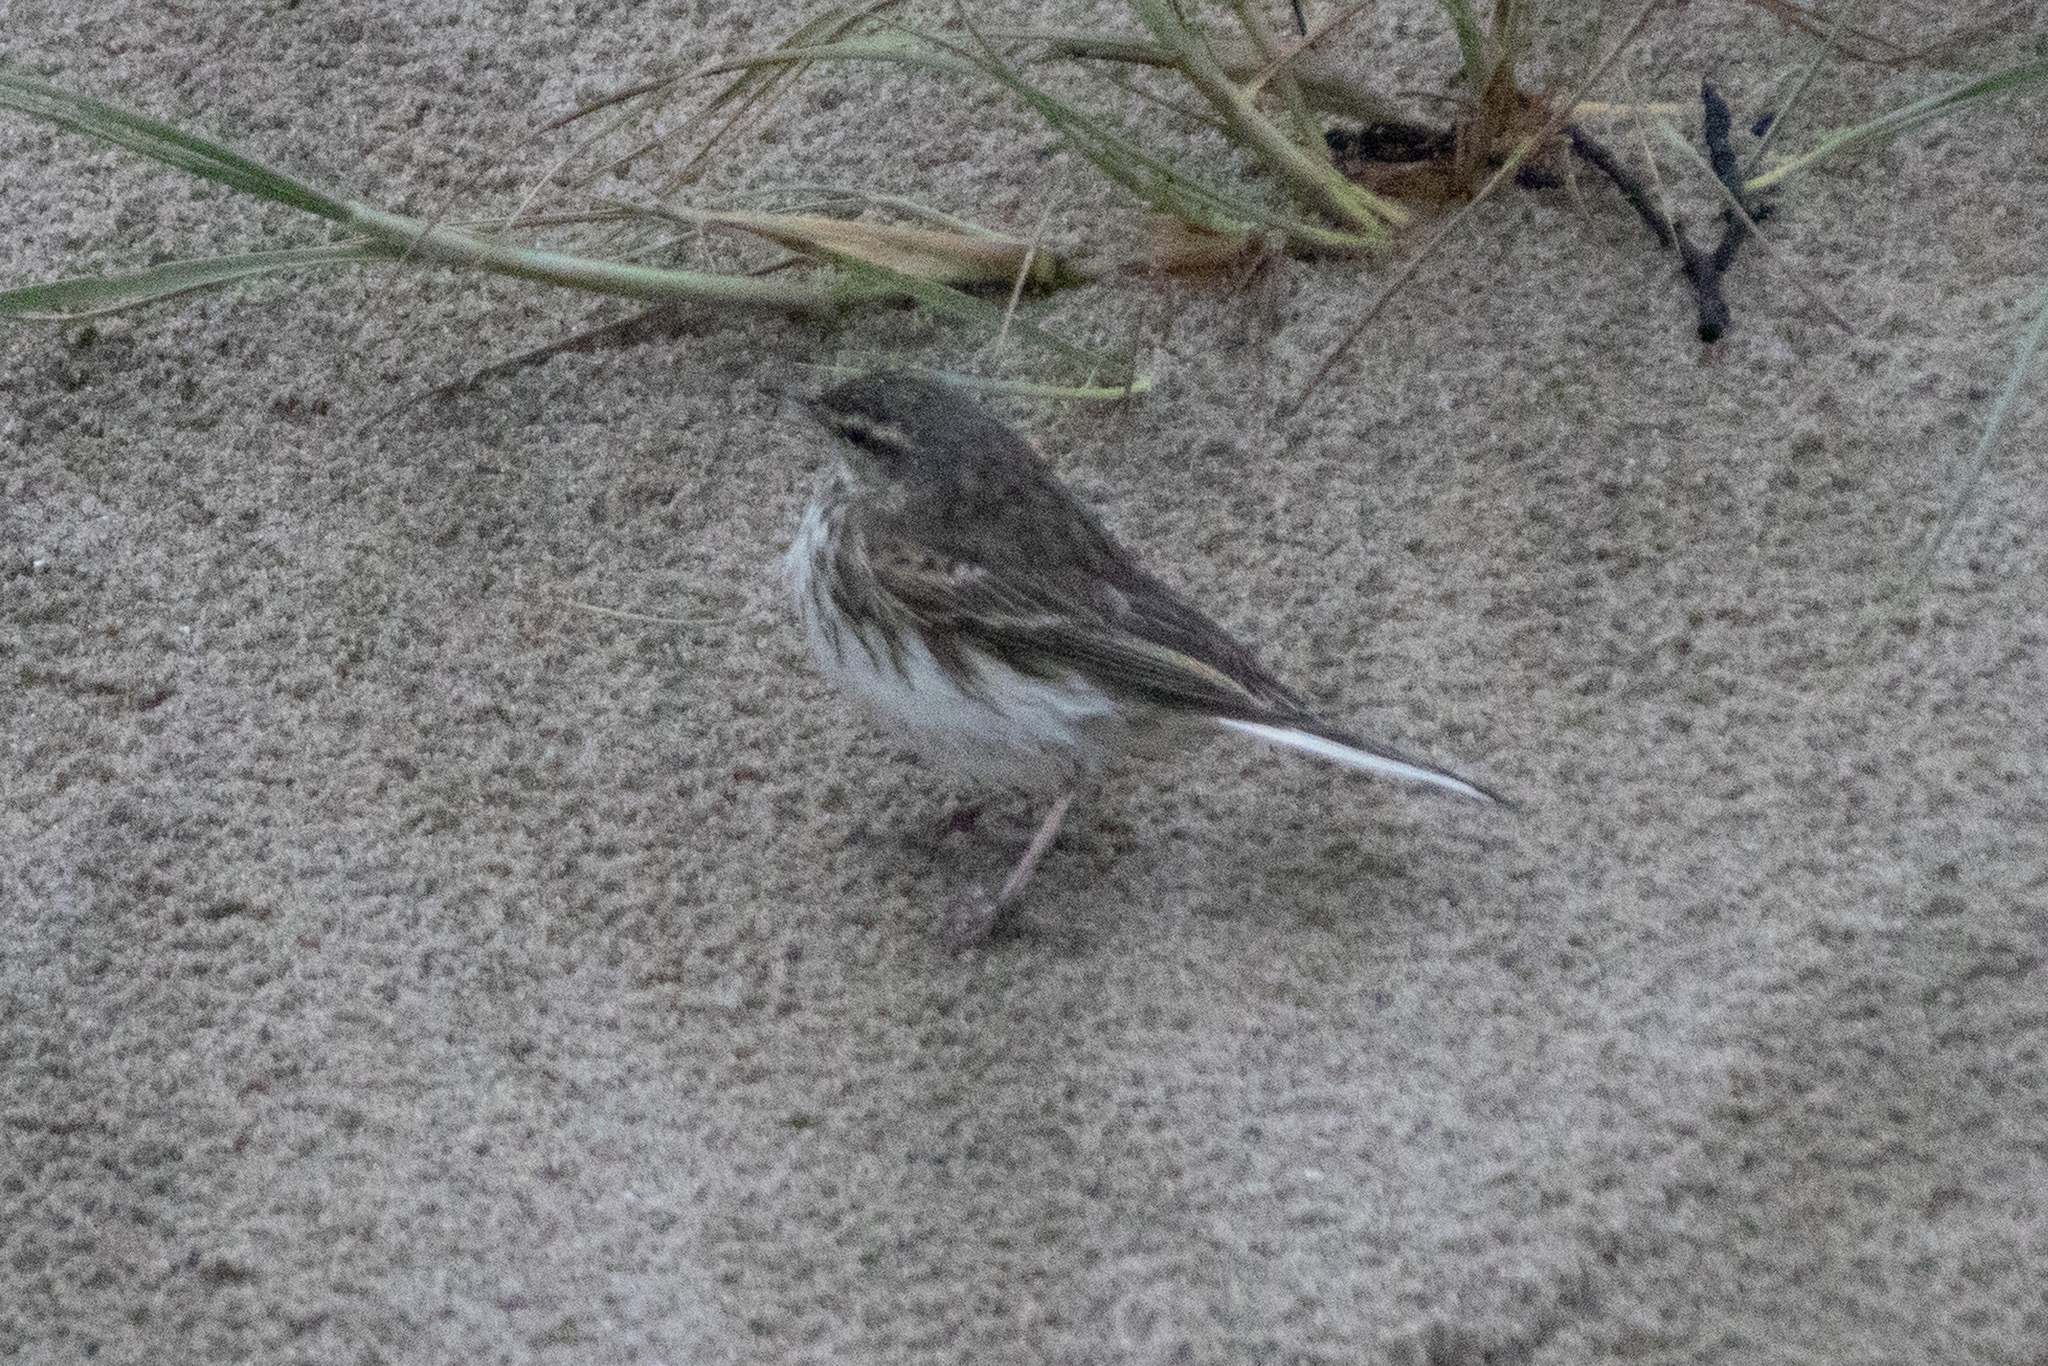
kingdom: Animalia
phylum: Chordata
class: Aves
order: Passeriformes
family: Motacillidae
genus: Anthus
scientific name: Anthus novaeseelandiae
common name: New zealand pipit
